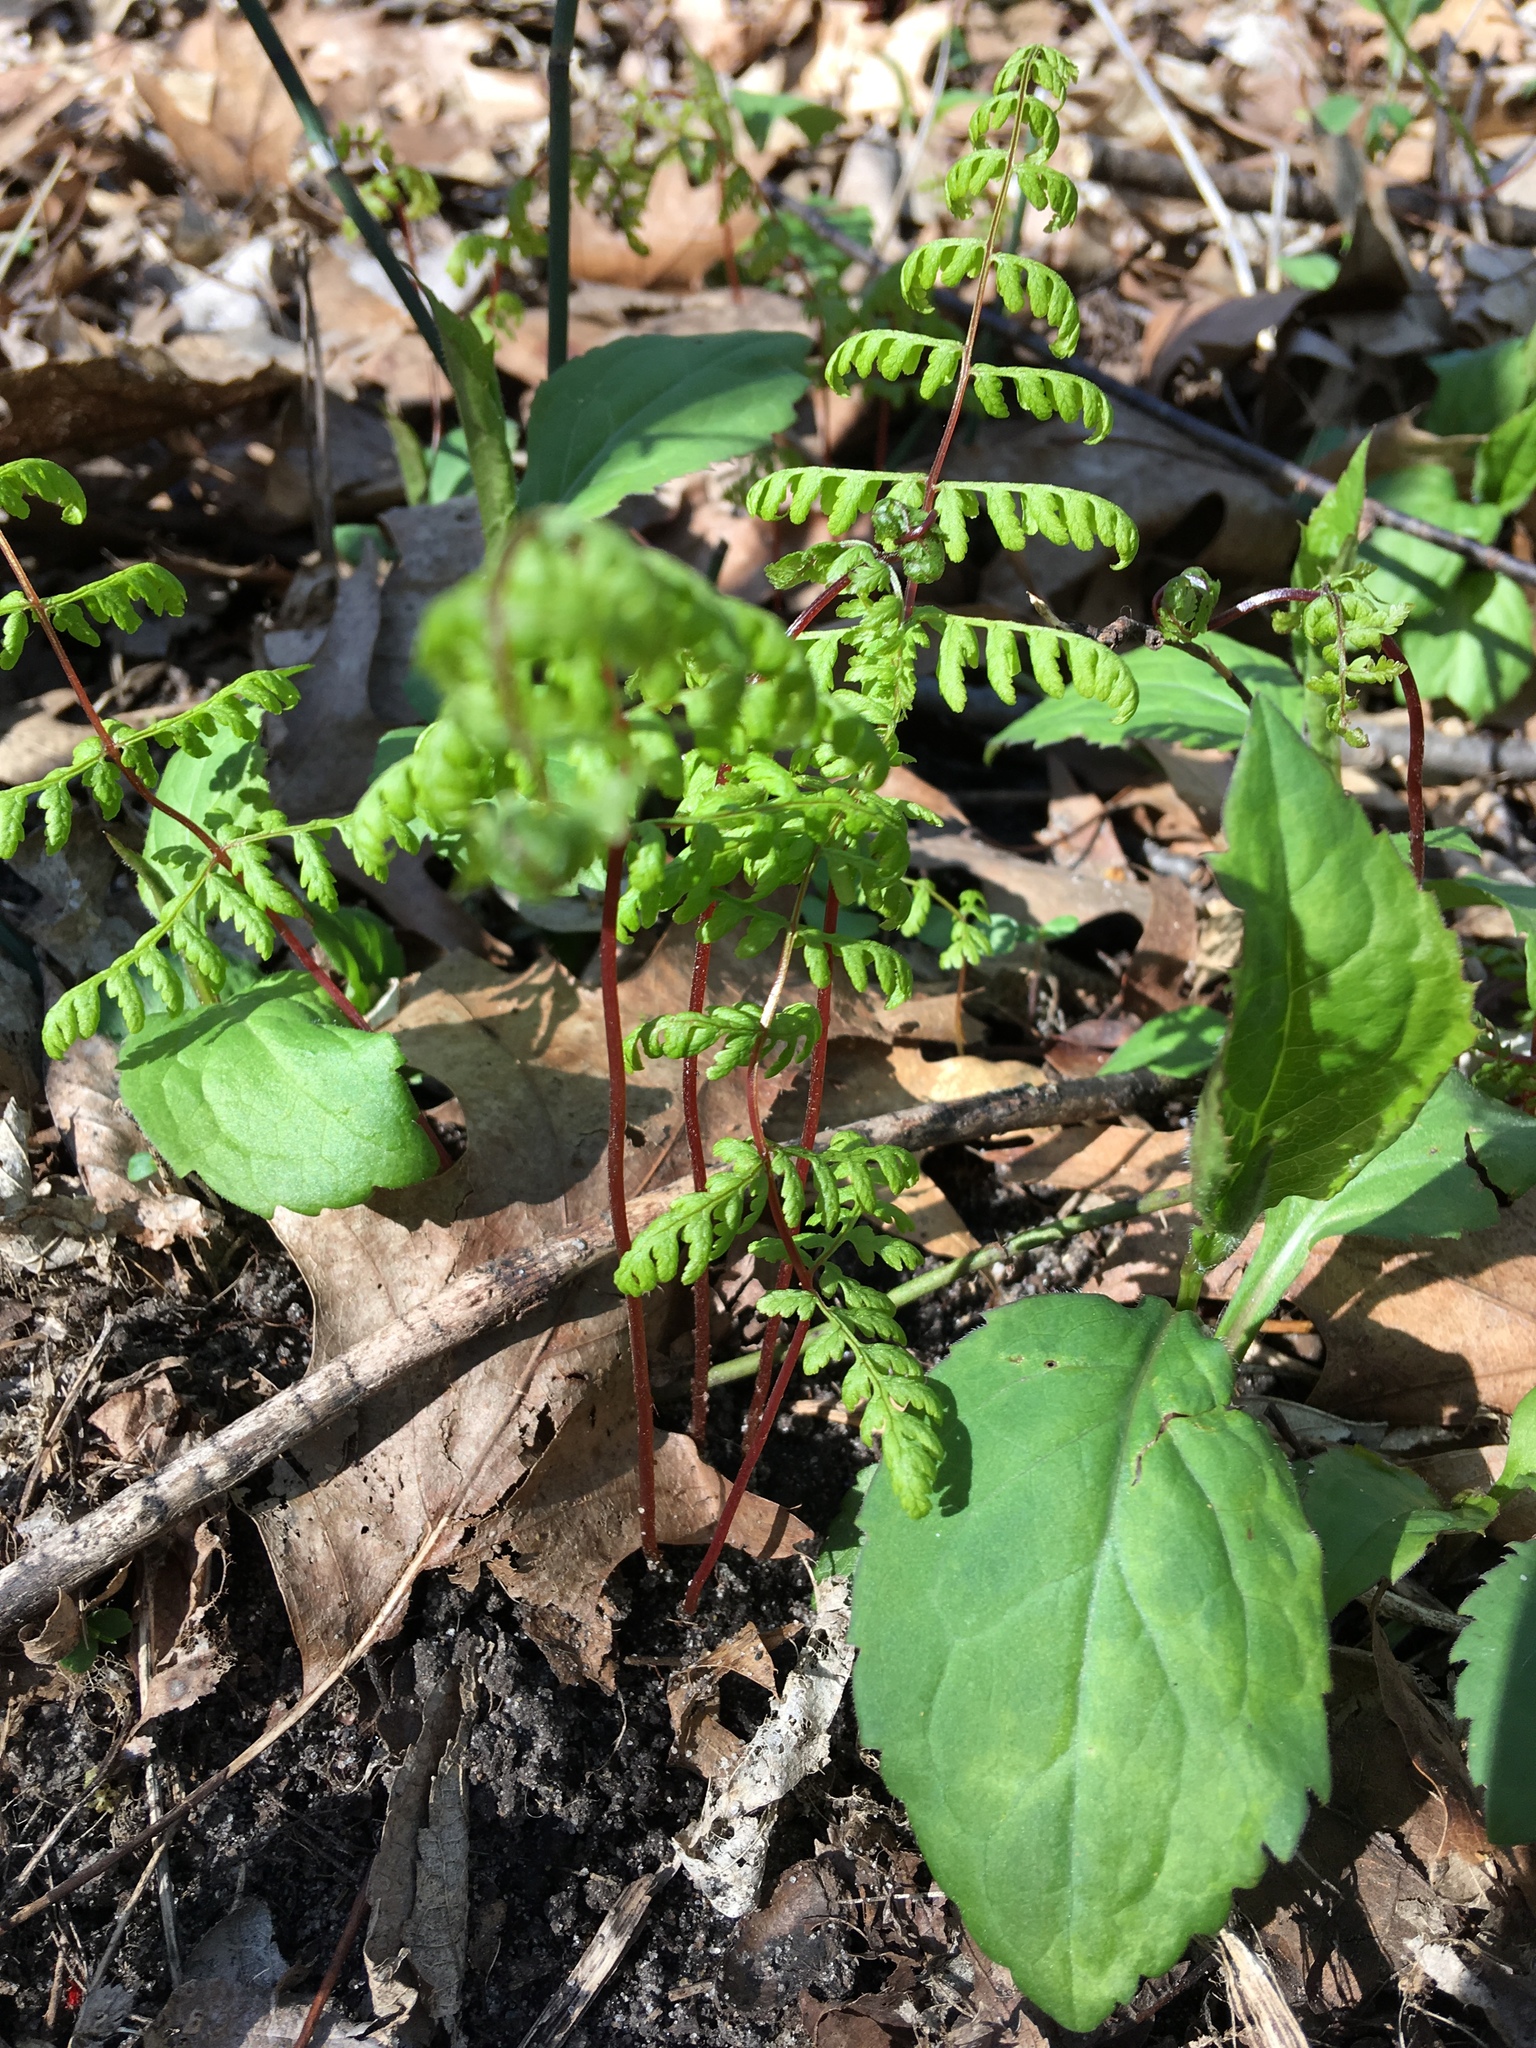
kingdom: Plantae
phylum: Tracheophyta
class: Polypodiopsida
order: Polypodiales
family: Cystopteridaceae
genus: Cystopteris
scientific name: Cystopteris bulbifera
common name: Bulblet bladder fern
